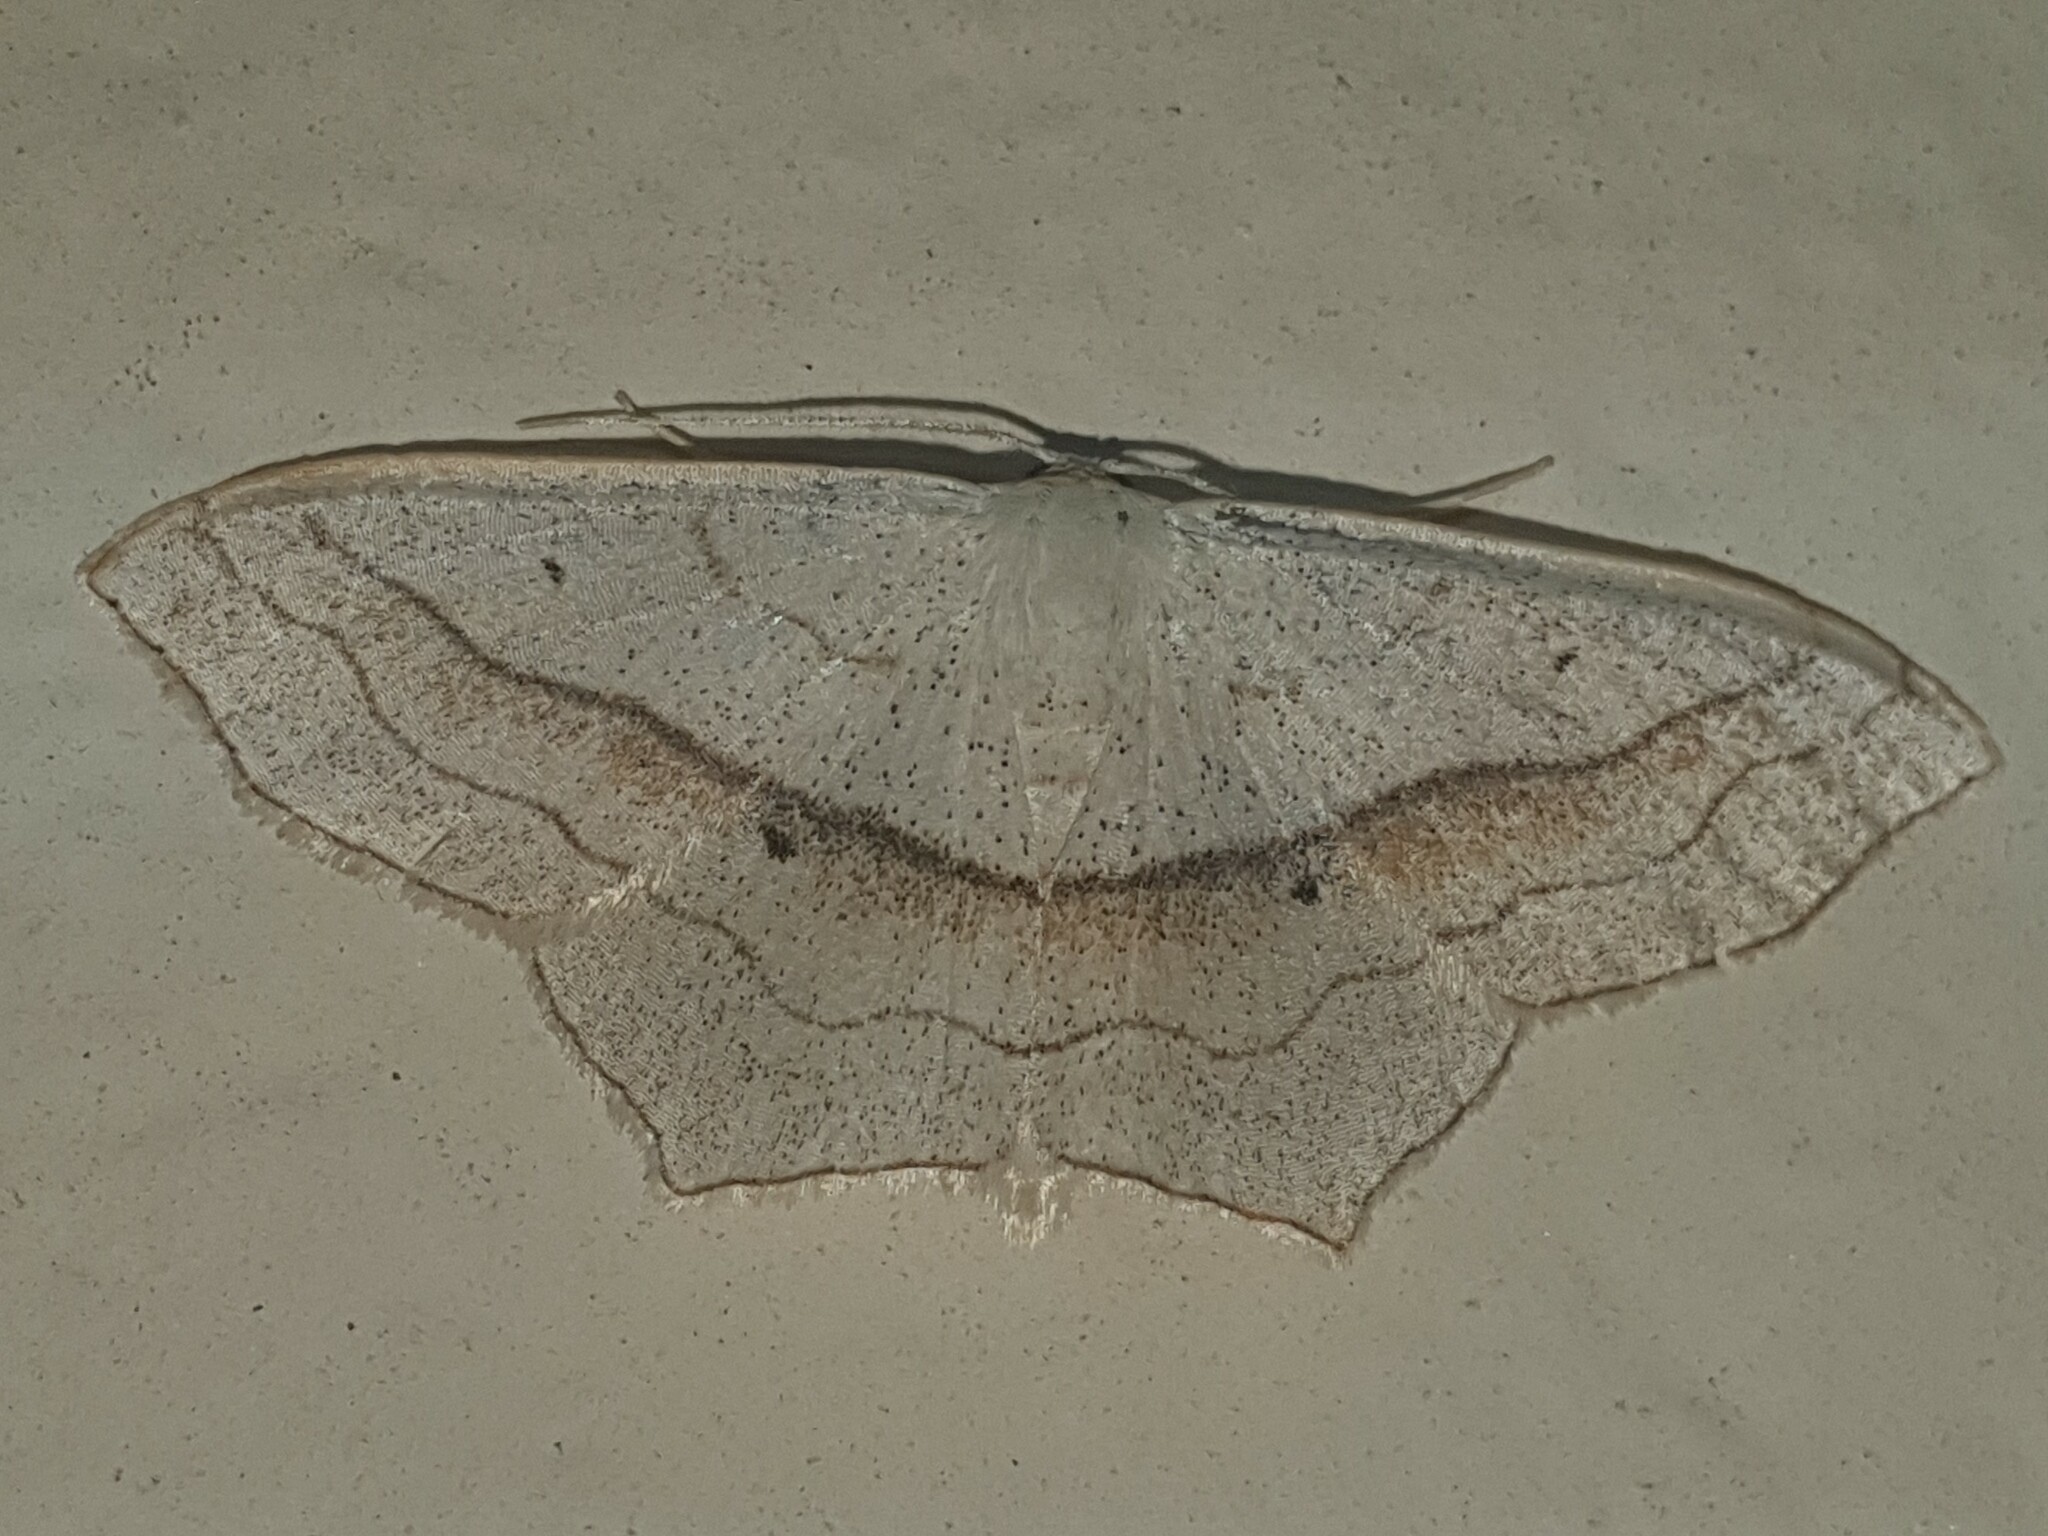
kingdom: Animalia
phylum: Arthropoda
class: Insecta
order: Lepidoptera
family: Geometridae
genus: Scopula
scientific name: Scopula imitaria
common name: Small blood-vein
